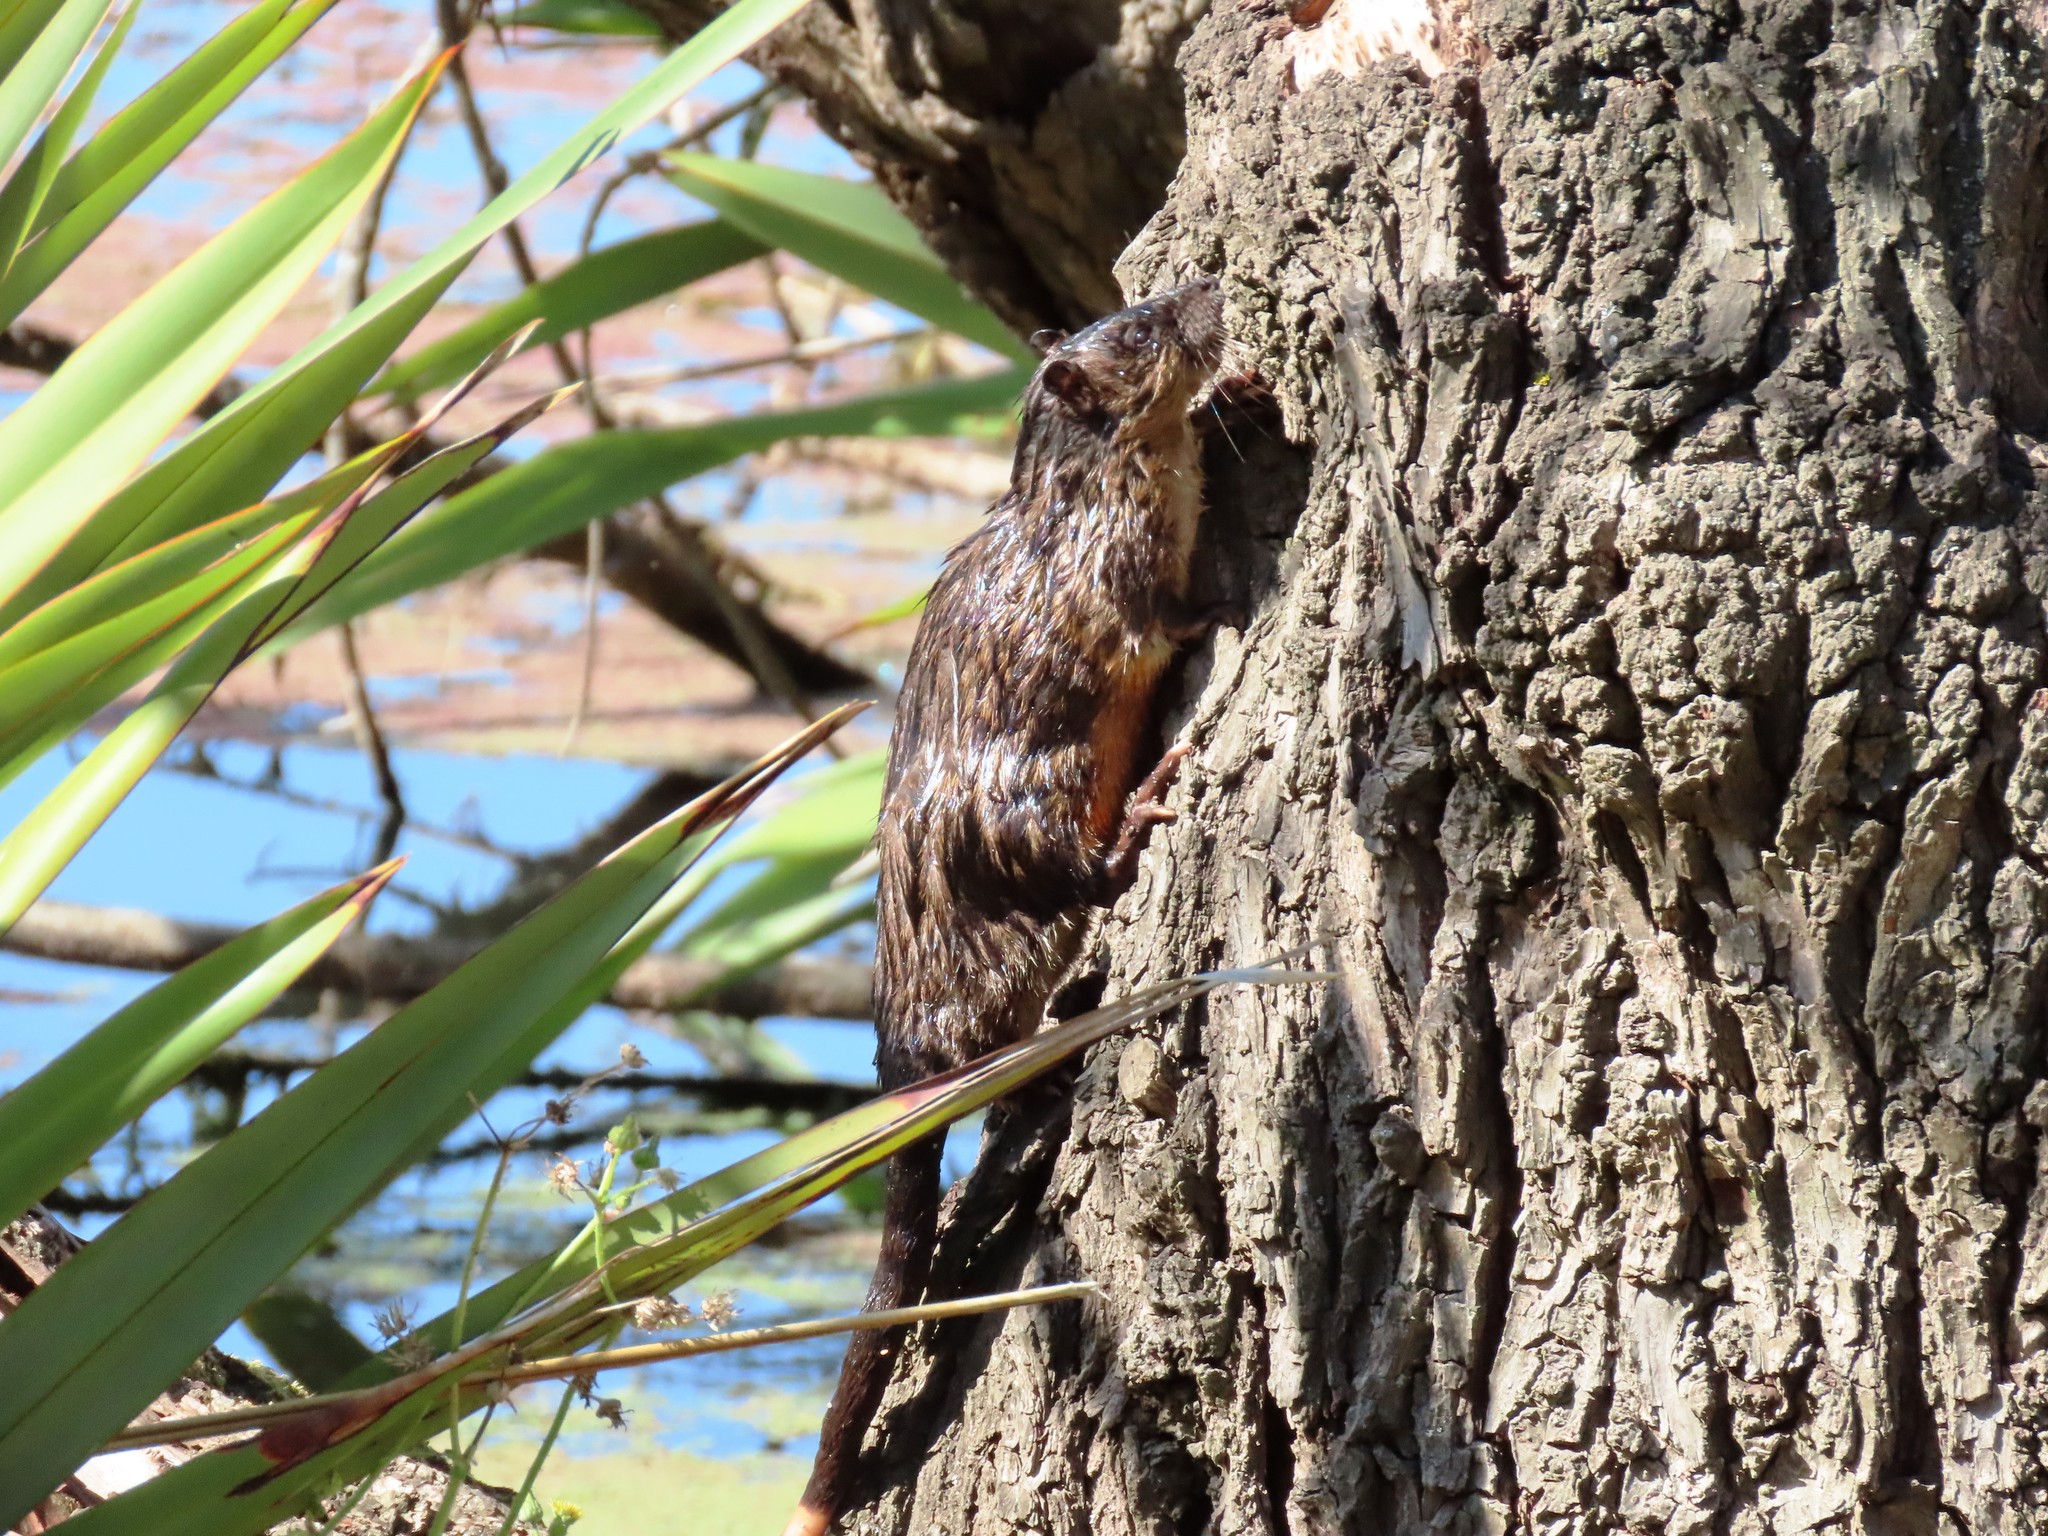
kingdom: Animalia
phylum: Chordata
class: Mammalia
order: Rodentia
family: Muridae
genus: Hydromys
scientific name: Hydromys chrysogaster
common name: Common water rat
